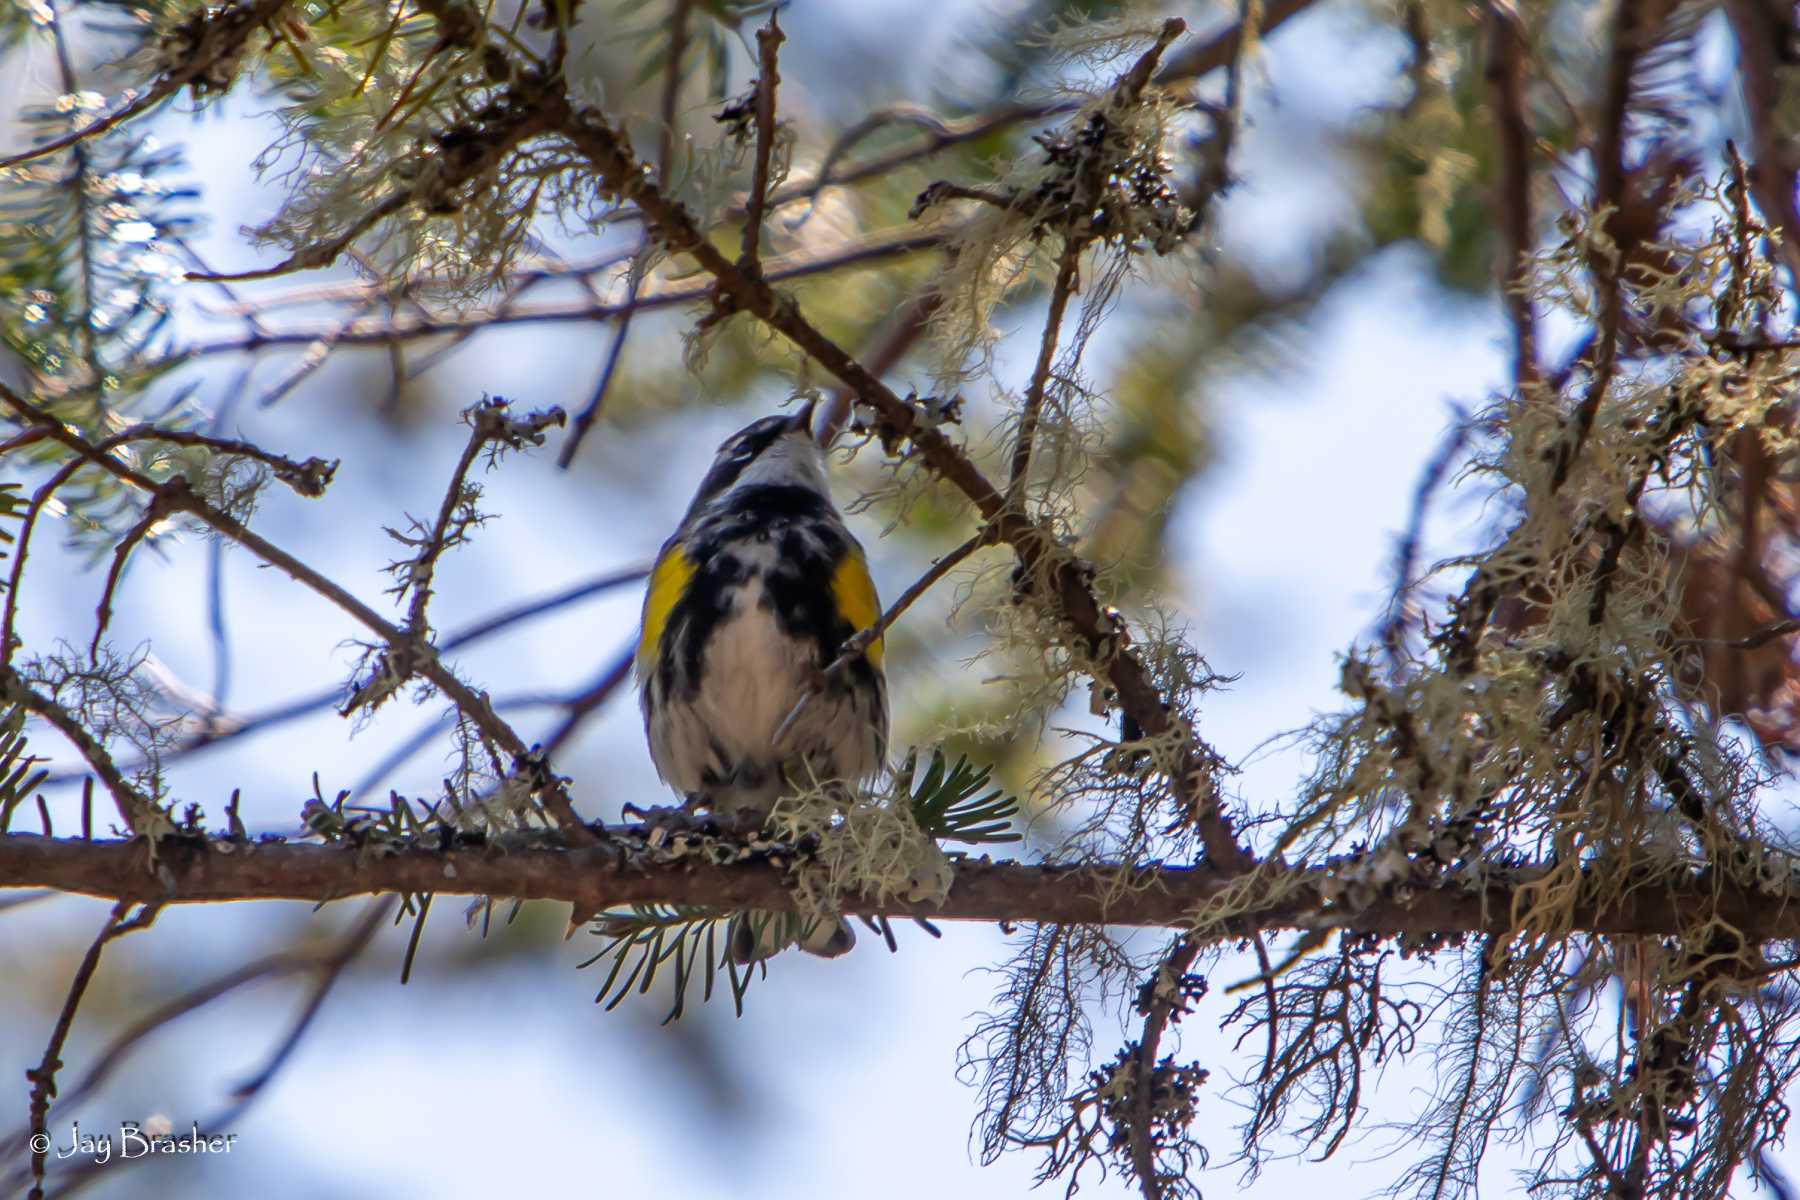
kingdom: Animalia
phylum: Chordata
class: Aves
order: Passeriformes
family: Parulidae
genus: Setophaga
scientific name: Setophaga coronata
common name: Myrtle warbler
